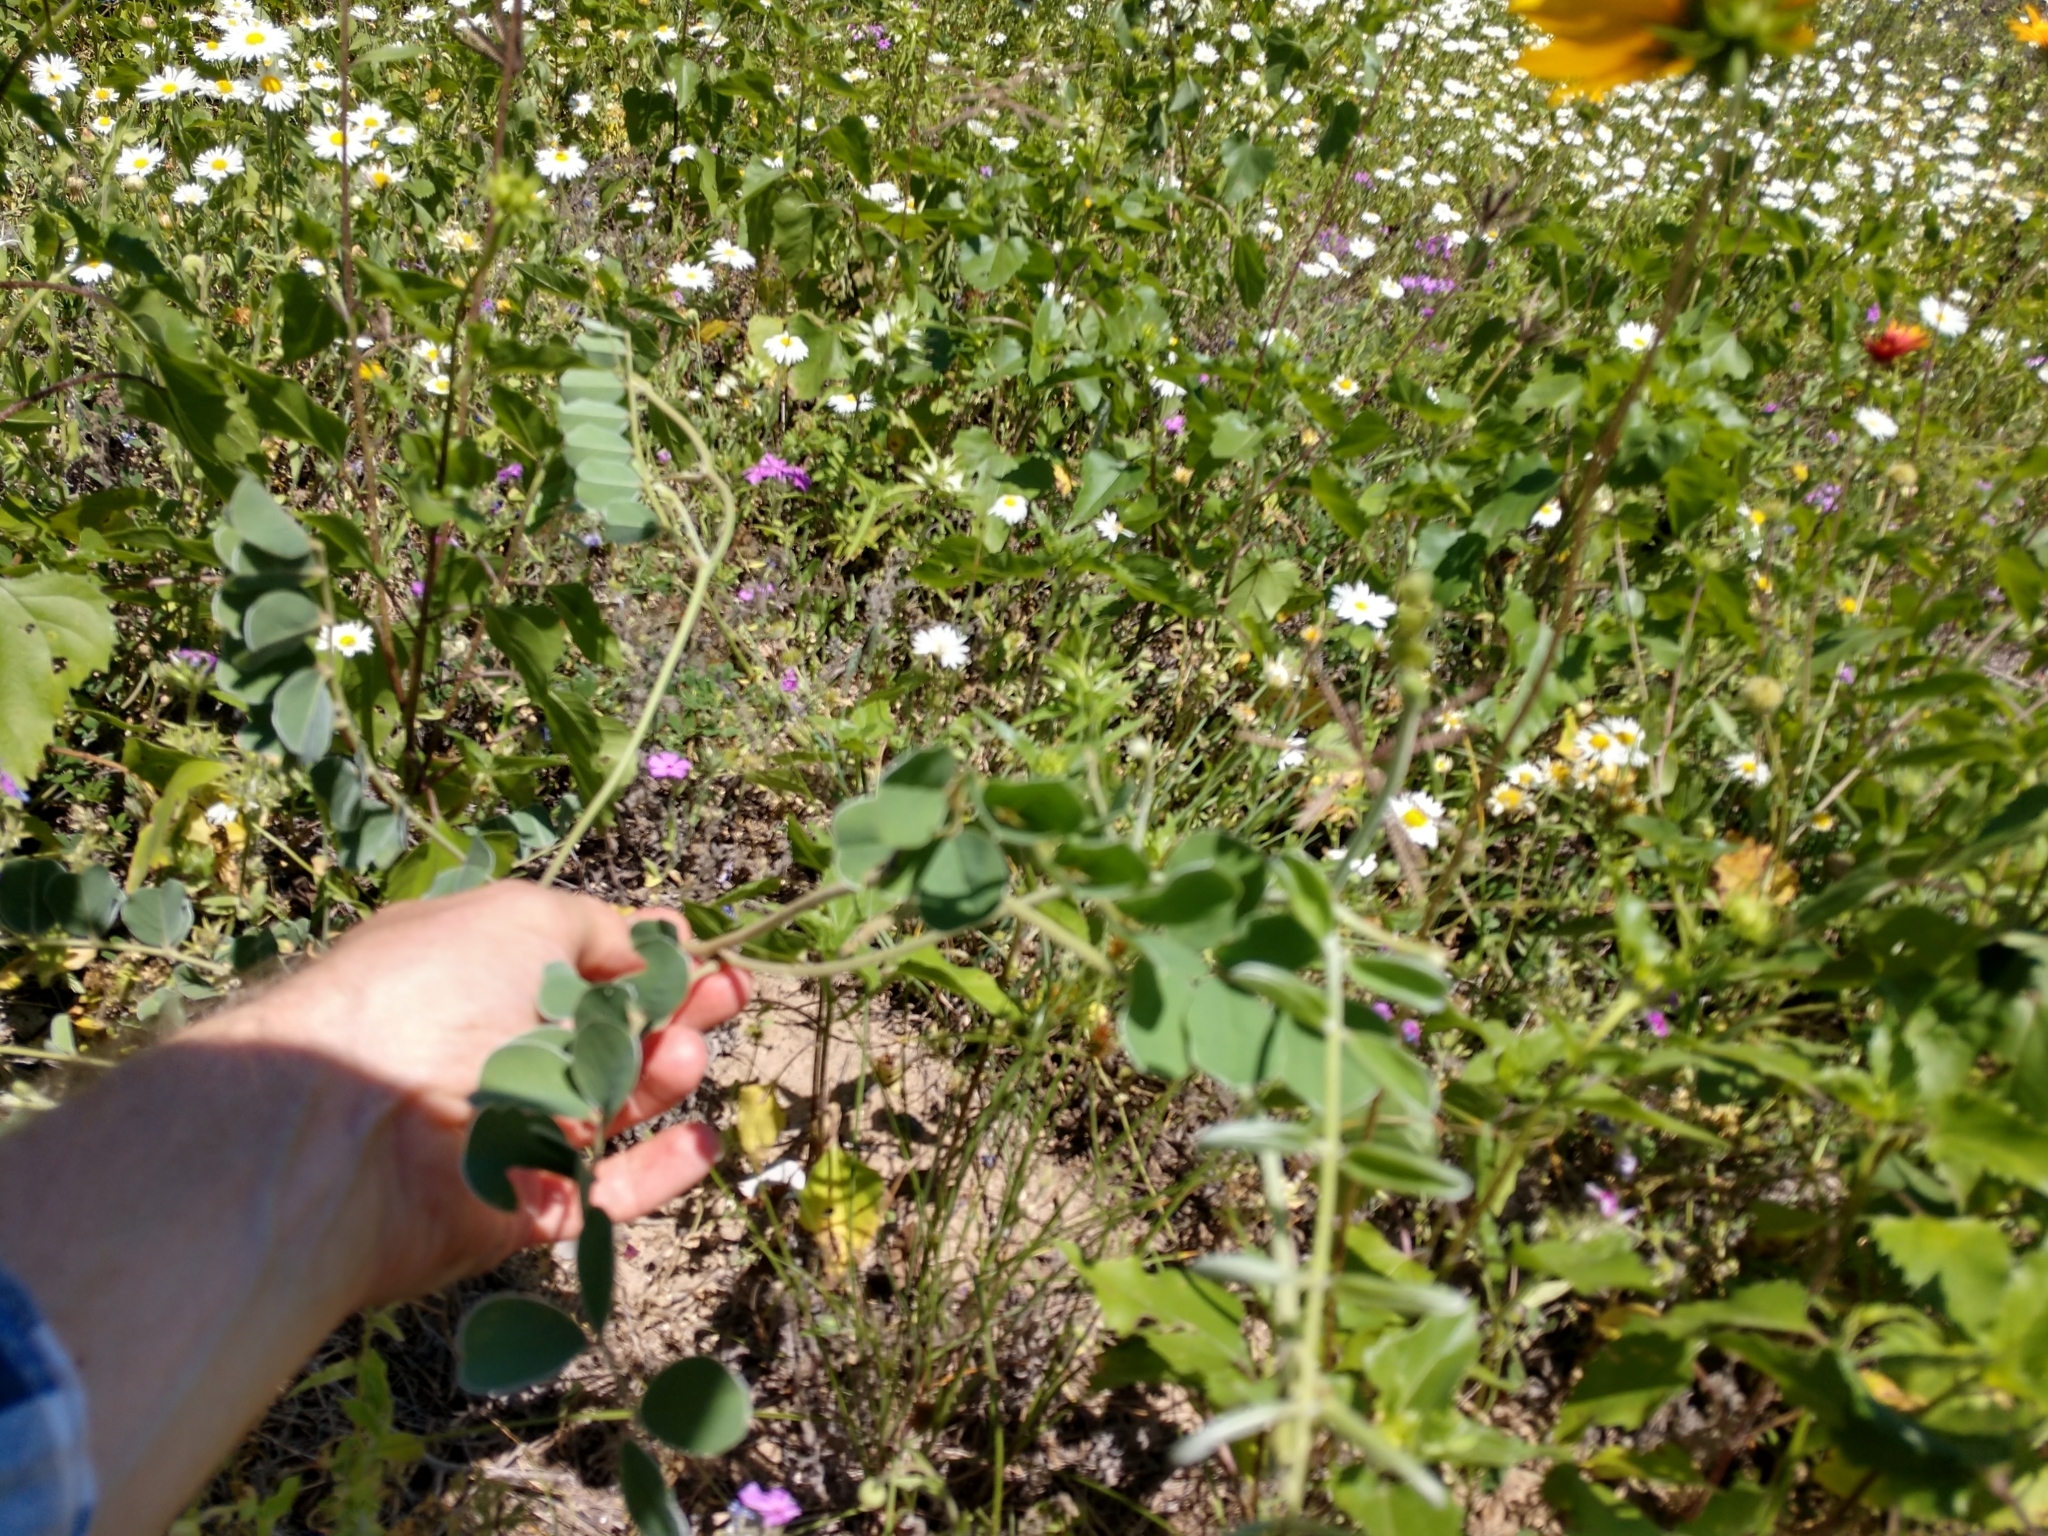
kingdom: Plantae
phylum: Tracheophyta
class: Magnoliopsida
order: Fabales
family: Fabaceae
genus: Tephrosia
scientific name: Tephrosia lindheimeri
